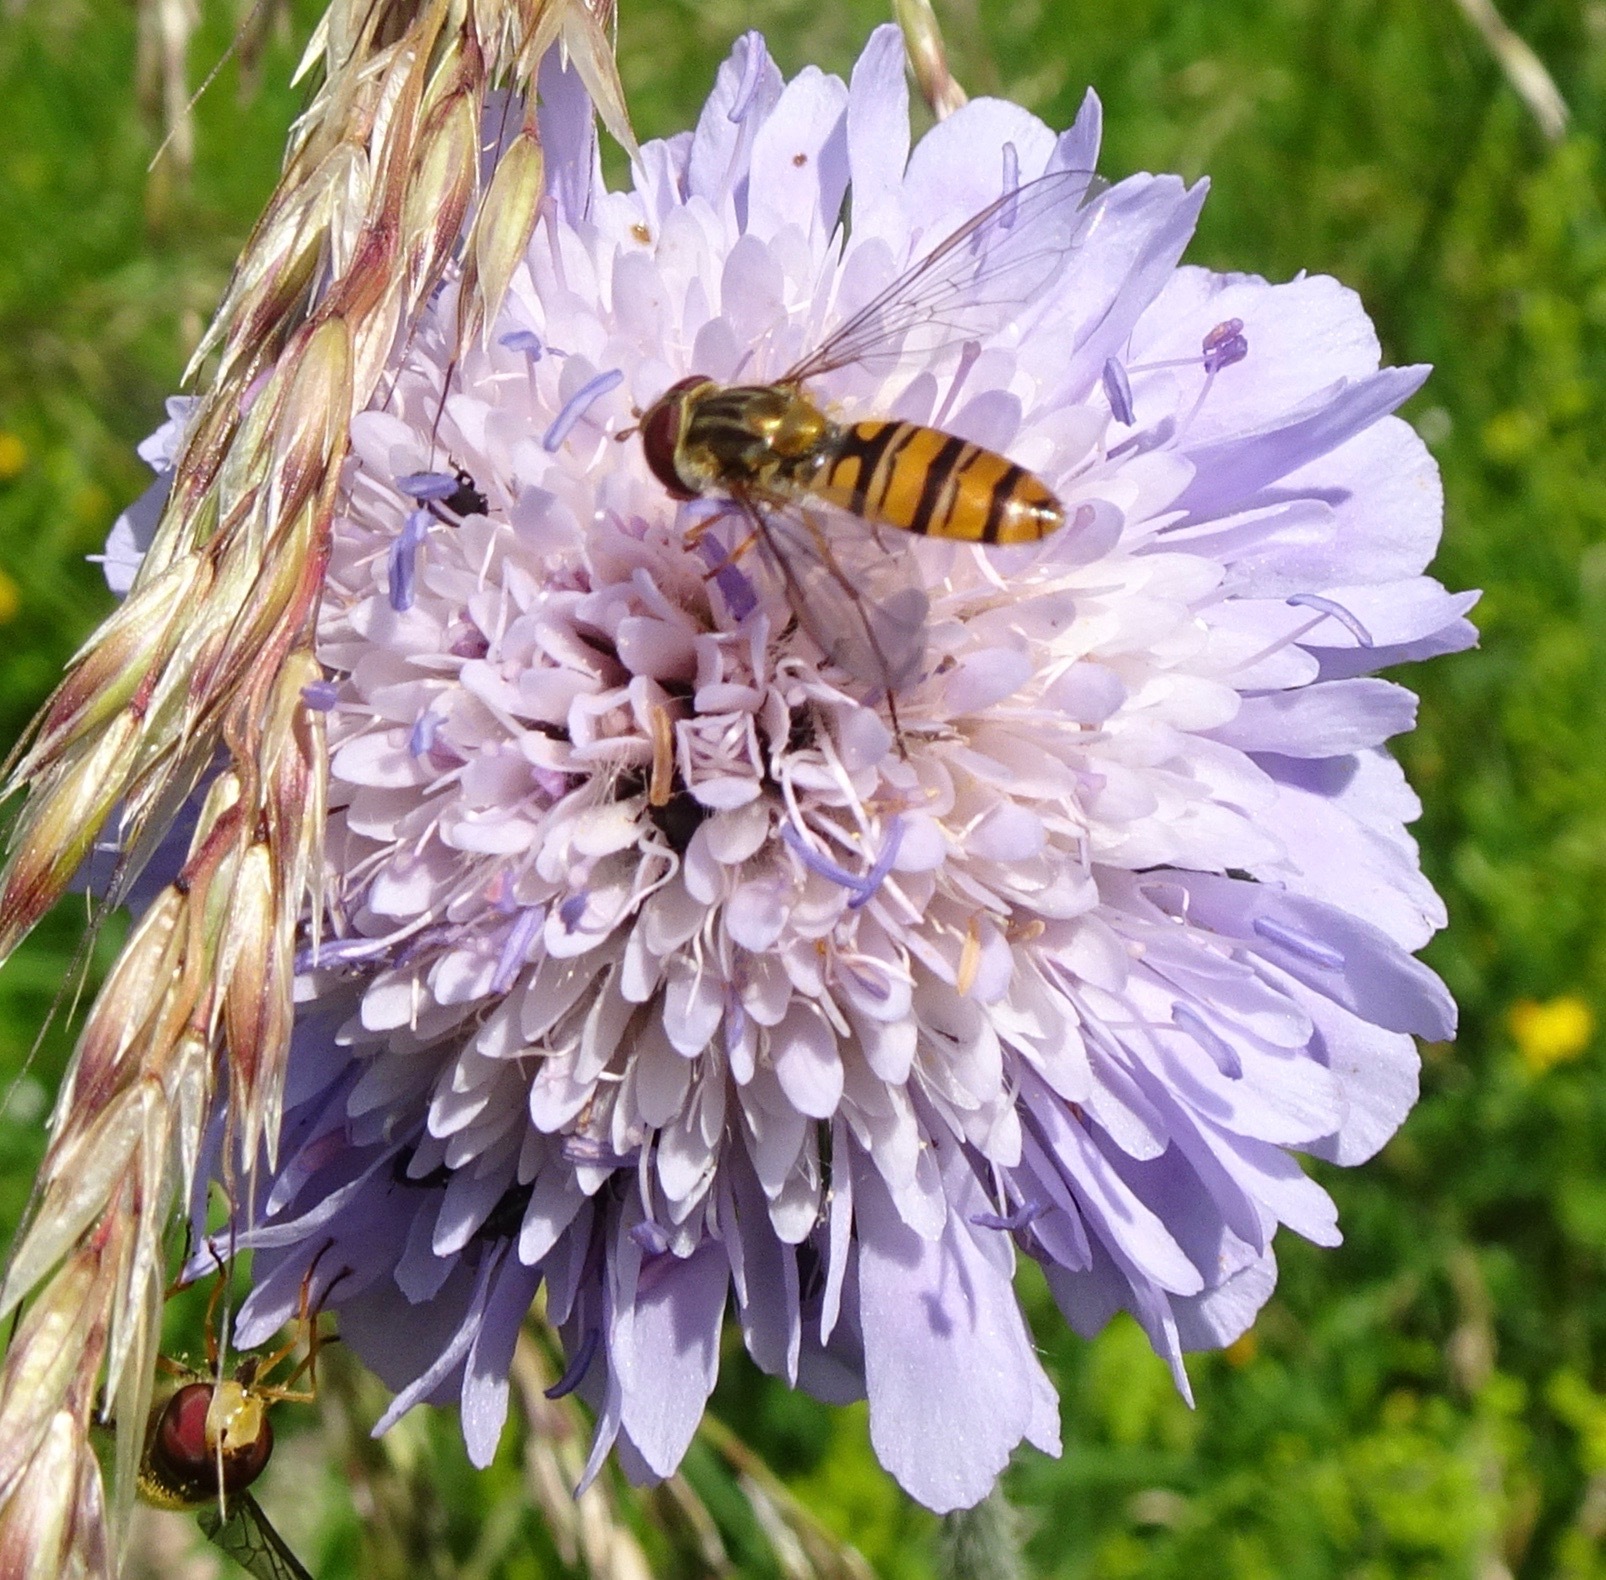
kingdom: Plantae
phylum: Tracheophyta
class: Magnoliopsida
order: Dipsacales
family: Caprifoliaceae
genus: Knautia
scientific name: Knautia arvensis
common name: Field scabiosa
